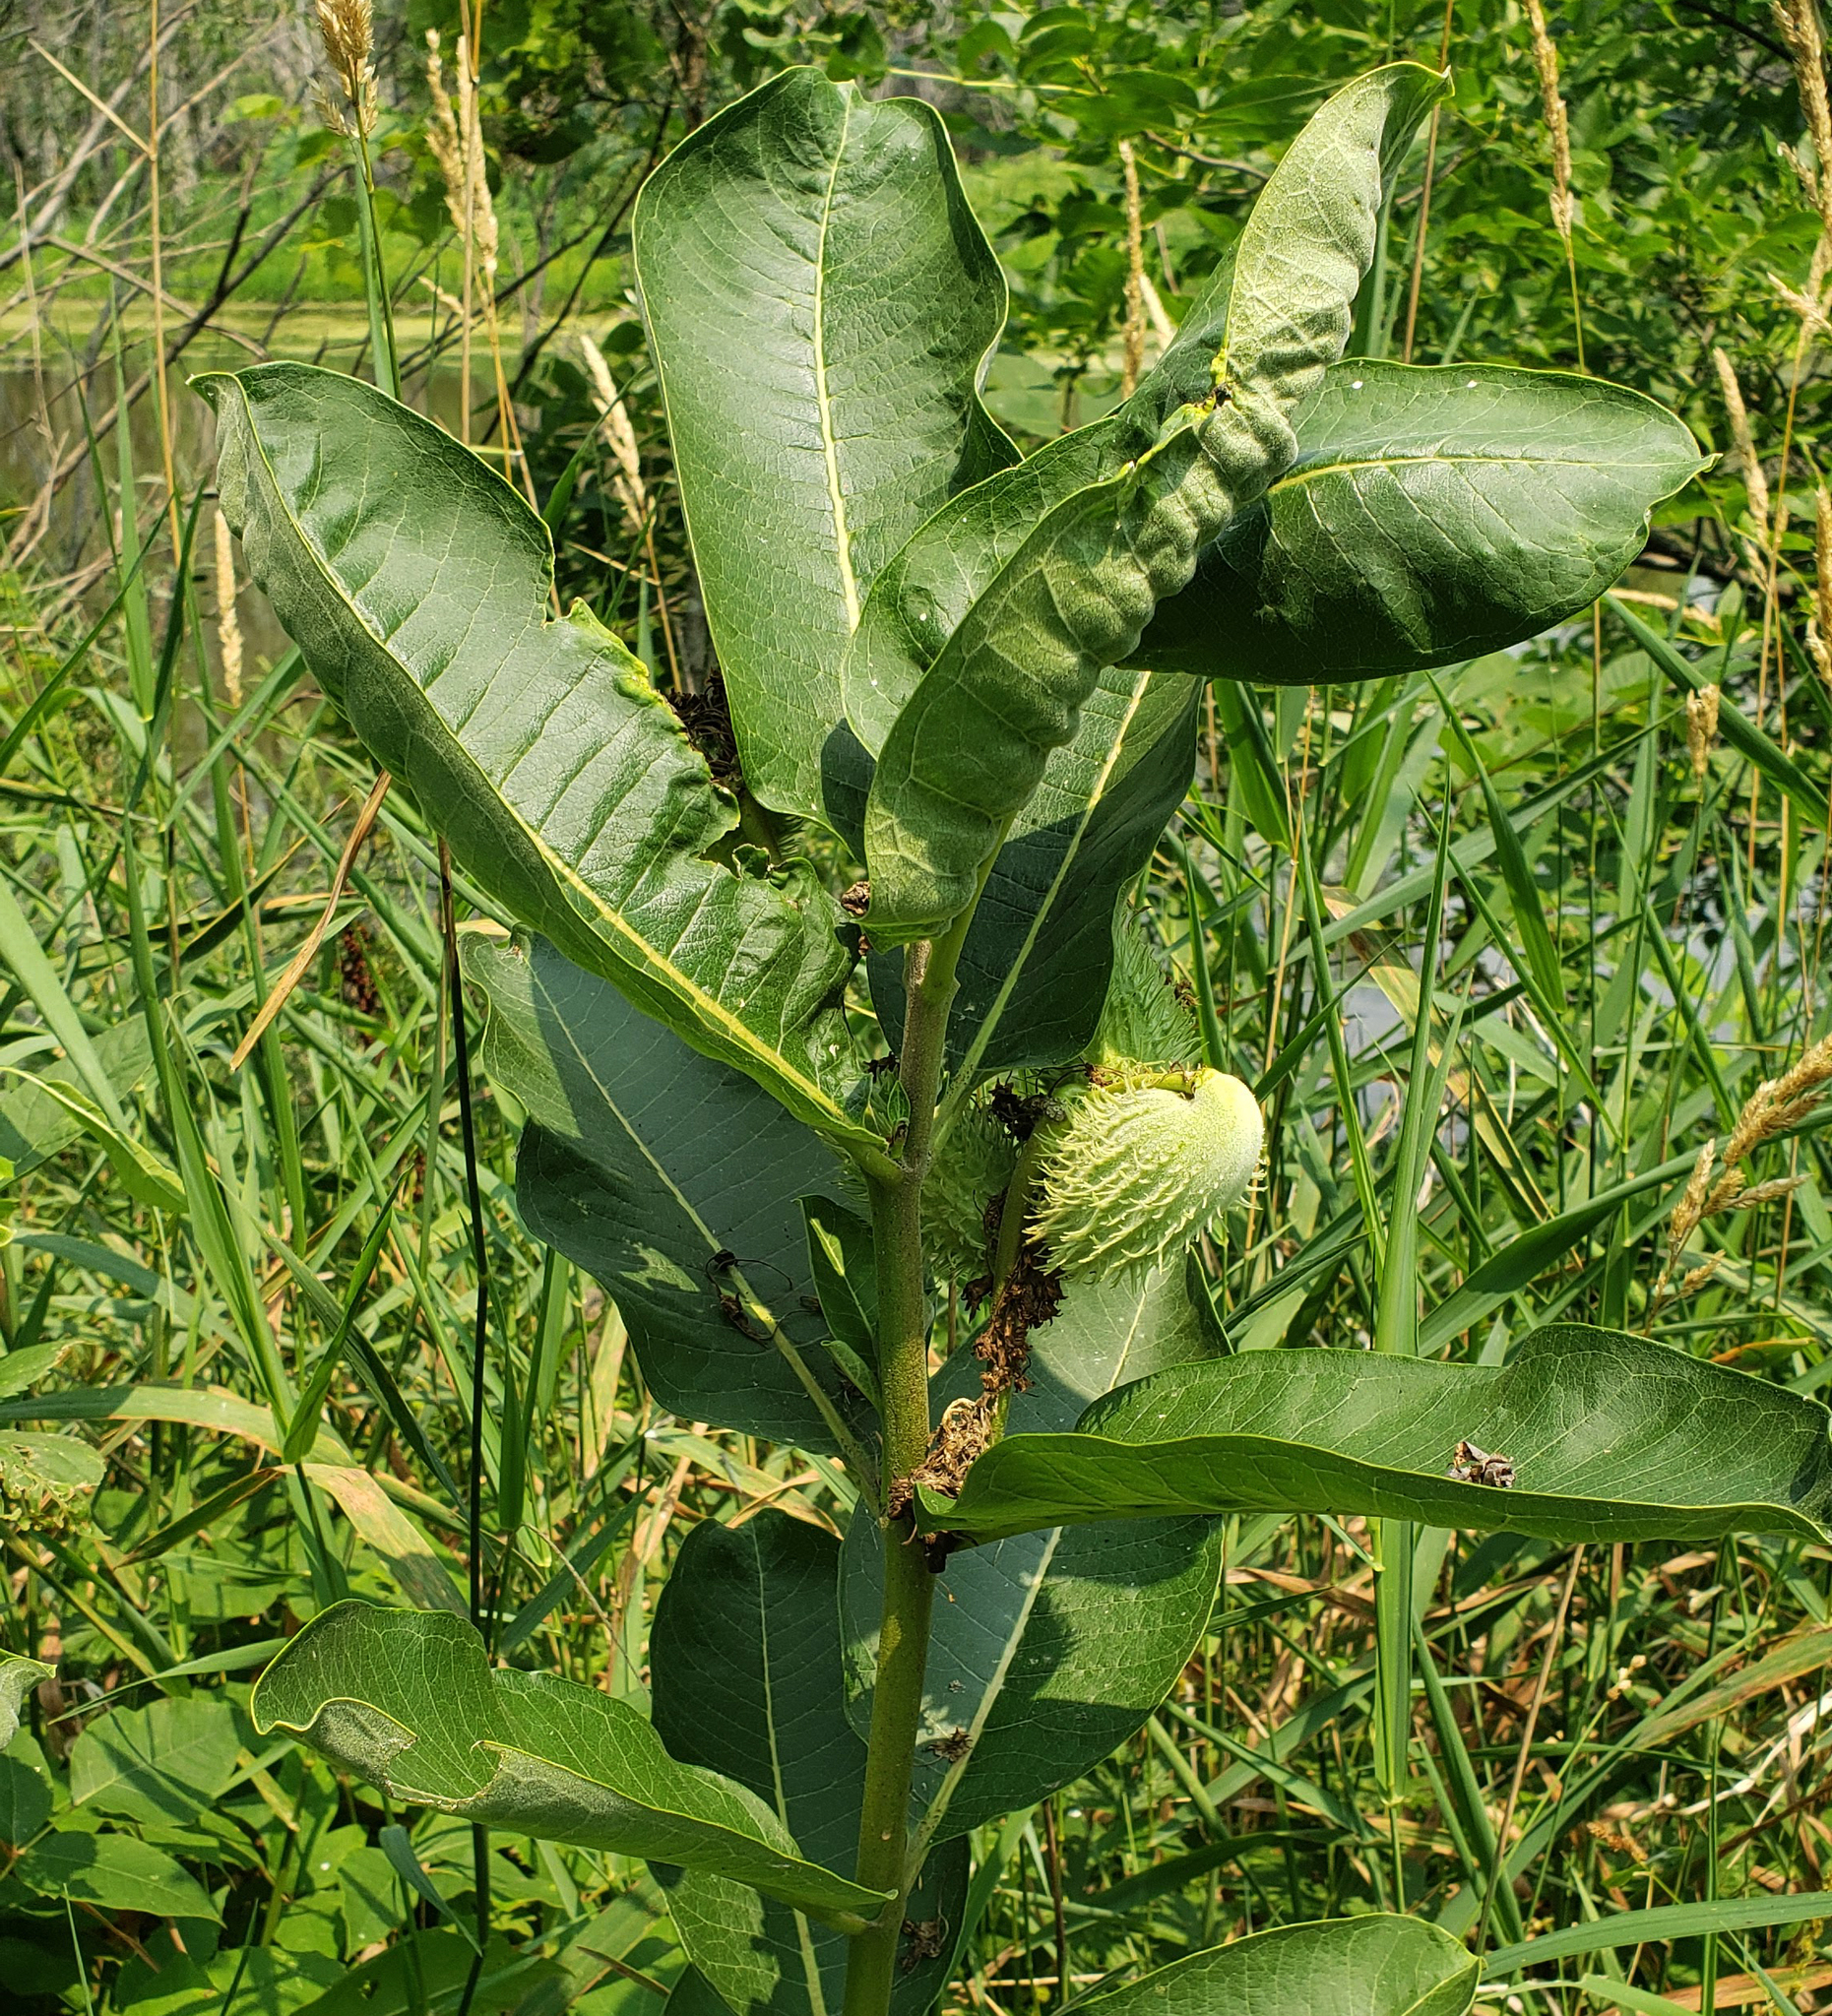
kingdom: Plantae
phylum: Tracheophyta
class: Magnoliopsida
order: Gentianales
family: Apocynaceae
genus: Asclepias
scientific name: Asclepias syriaca
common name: Common milkweed
